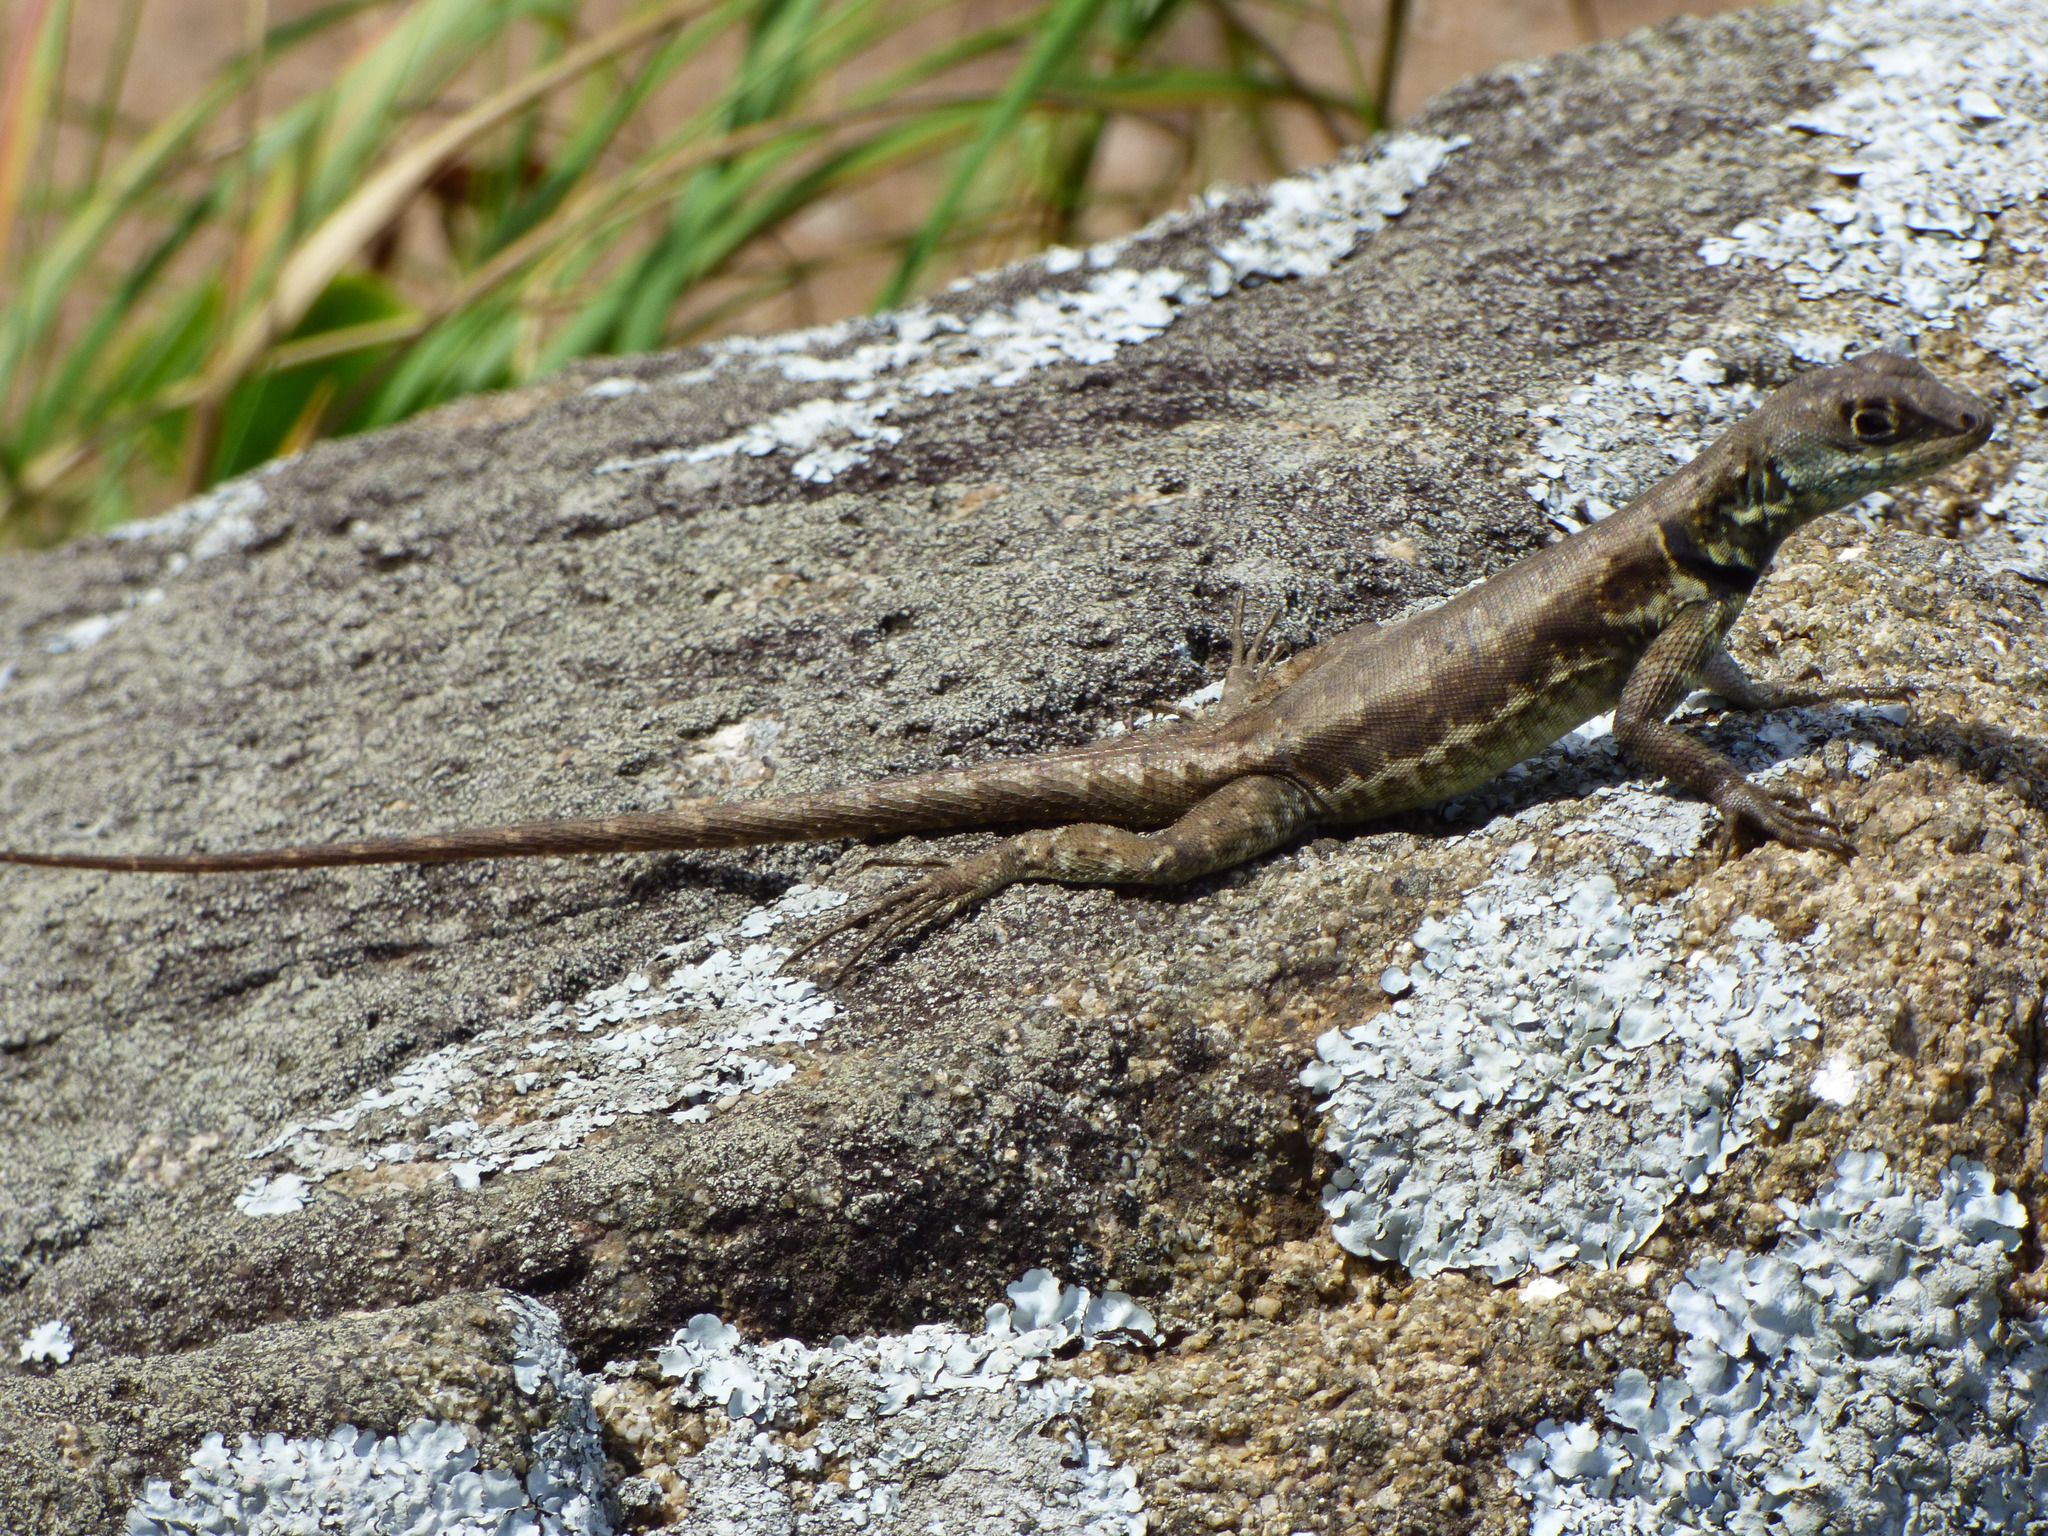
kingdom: Animalia
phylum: Chordata
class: Squamata
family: Tropiduridae
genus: Tropidurus
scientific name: Tropidurus imbituba
